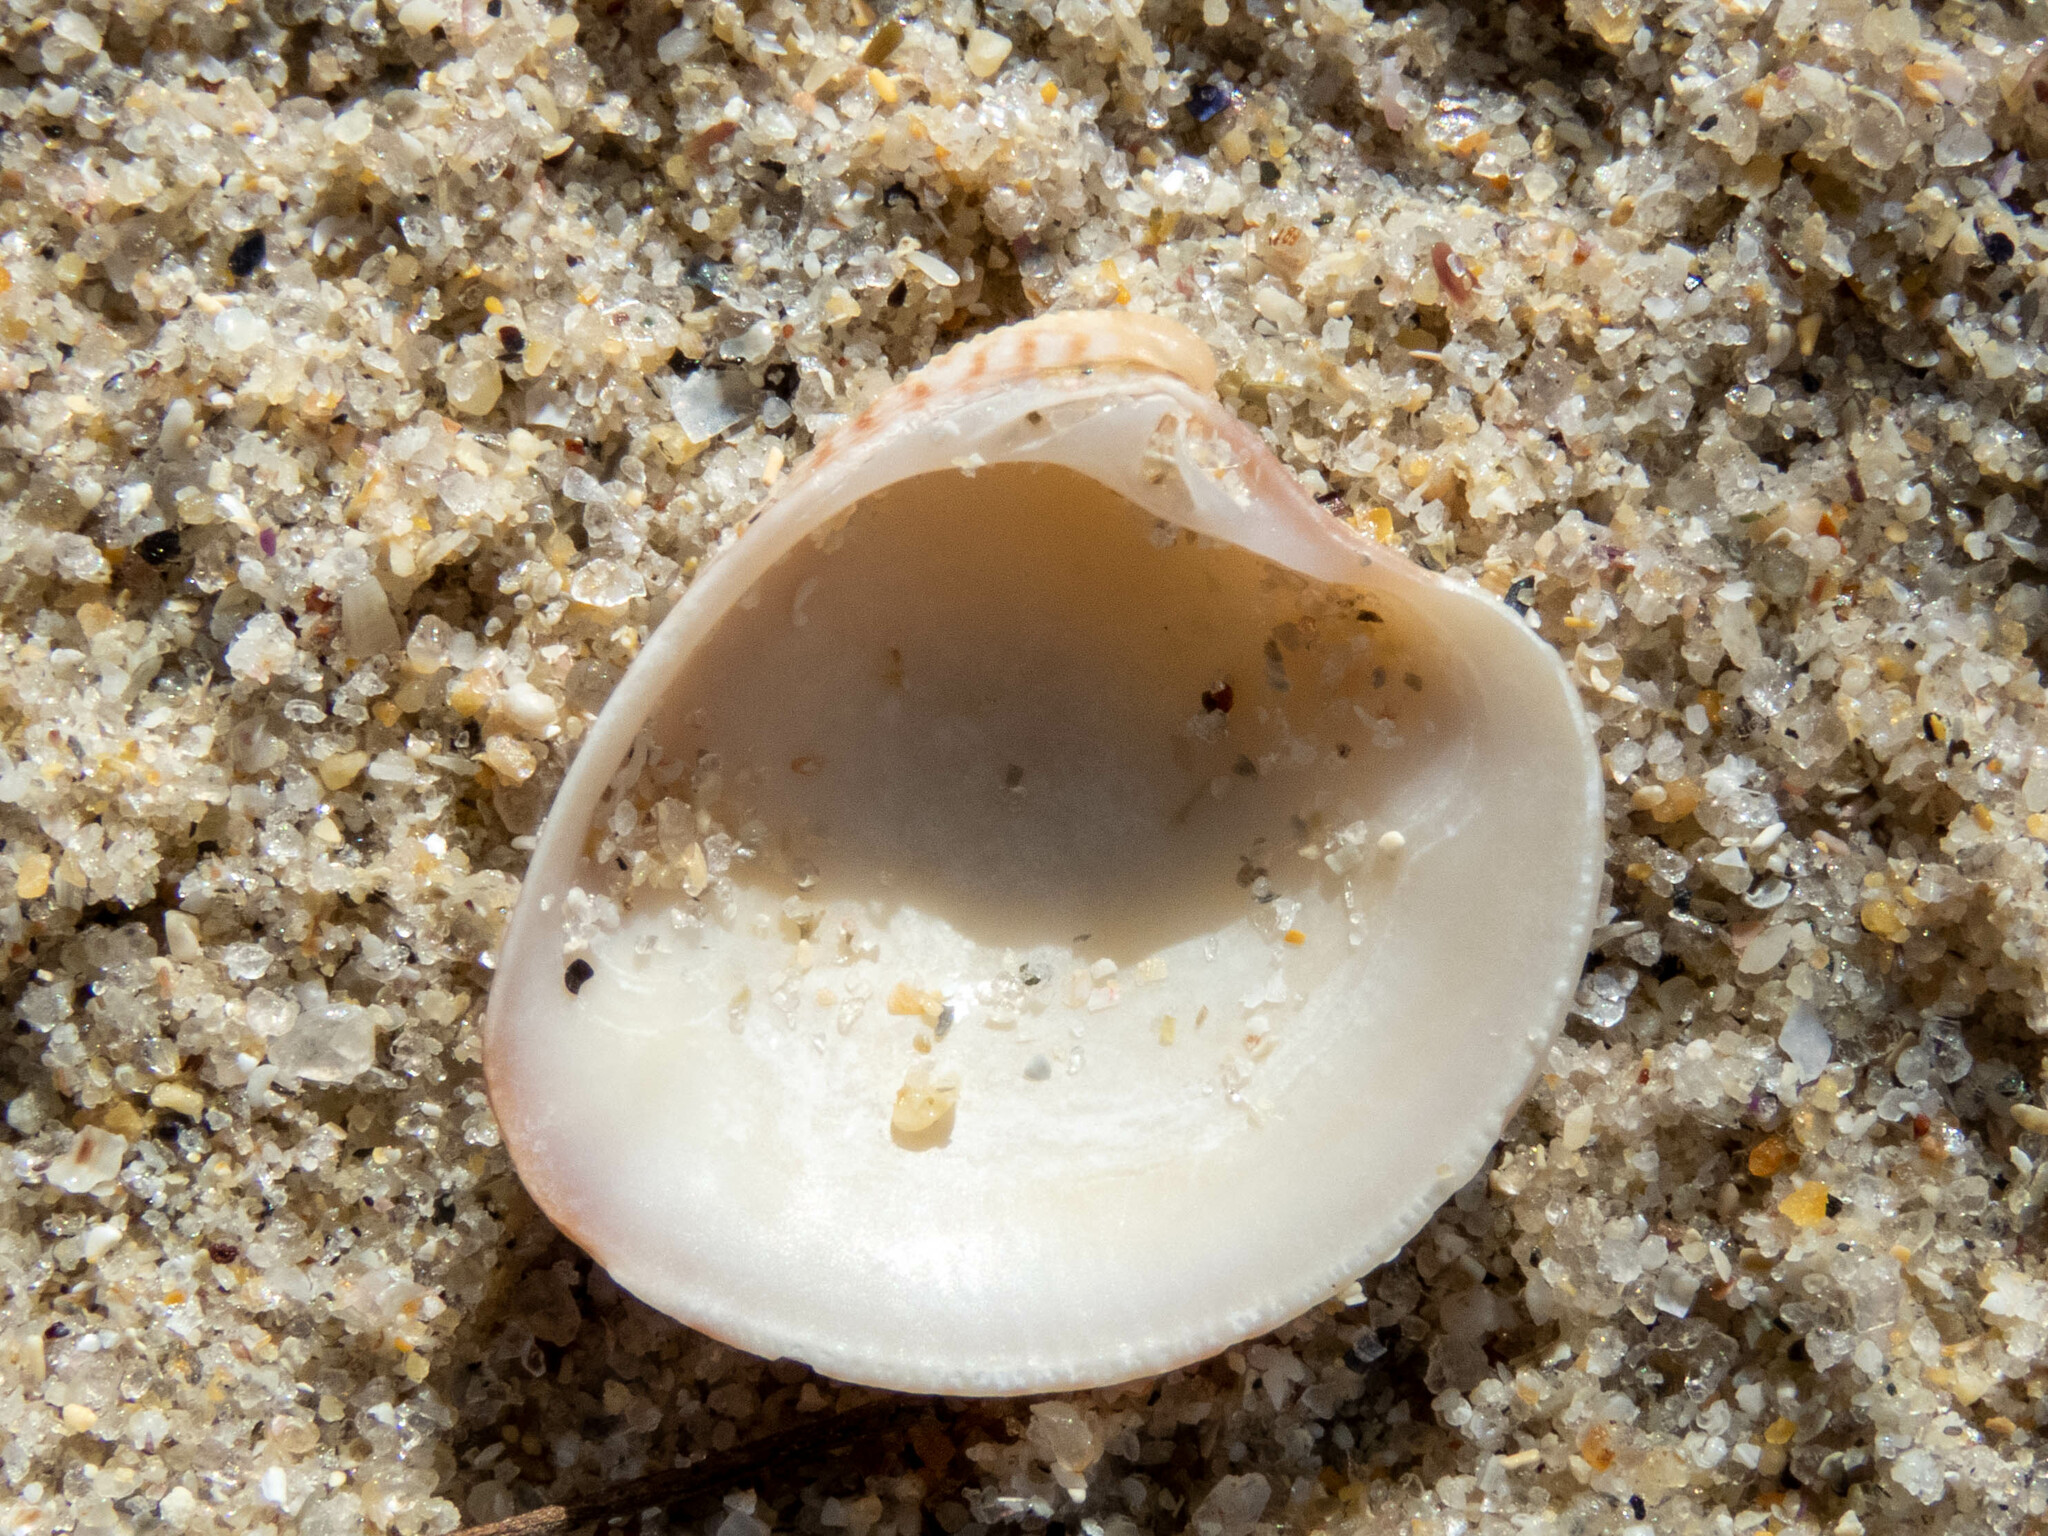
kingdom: Animalia
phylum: Mollusca
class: Bivalvia
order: Venerida
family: Veneridae
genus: Chamelea
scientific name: Chamelea striatula
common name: Striped venus
